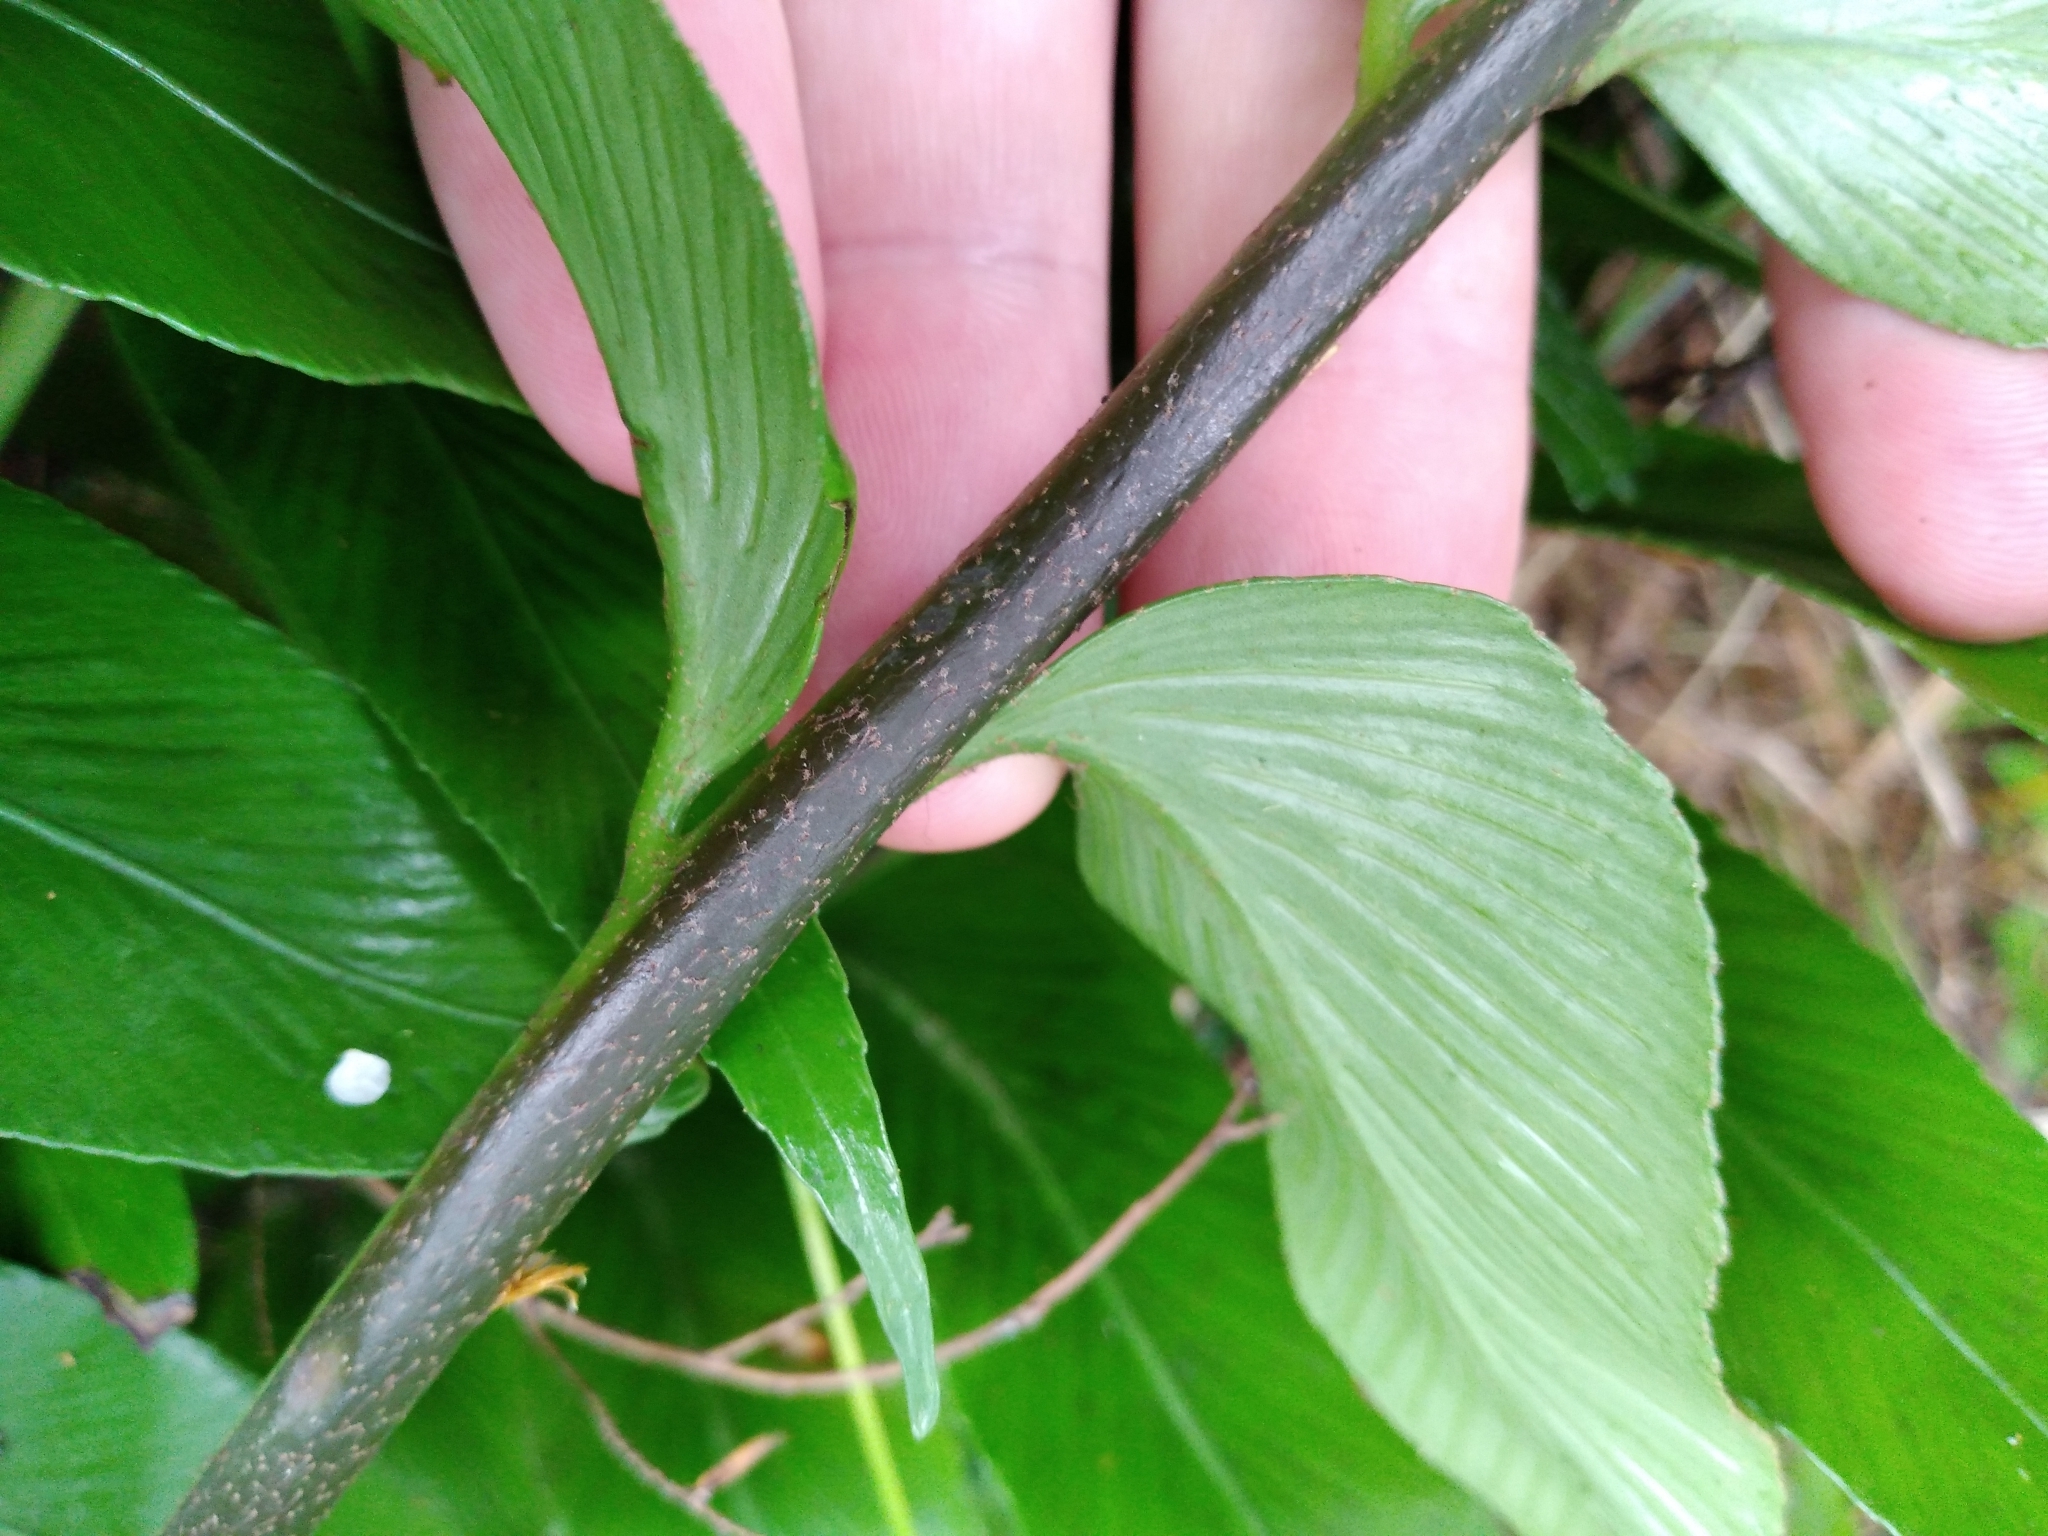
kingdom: Plantae
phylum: Tracheophyta
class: Polypodiopsida
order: Polypodiales
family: Aspleniaceae
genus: Asplenium
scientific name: Asplenium oblongifolium
